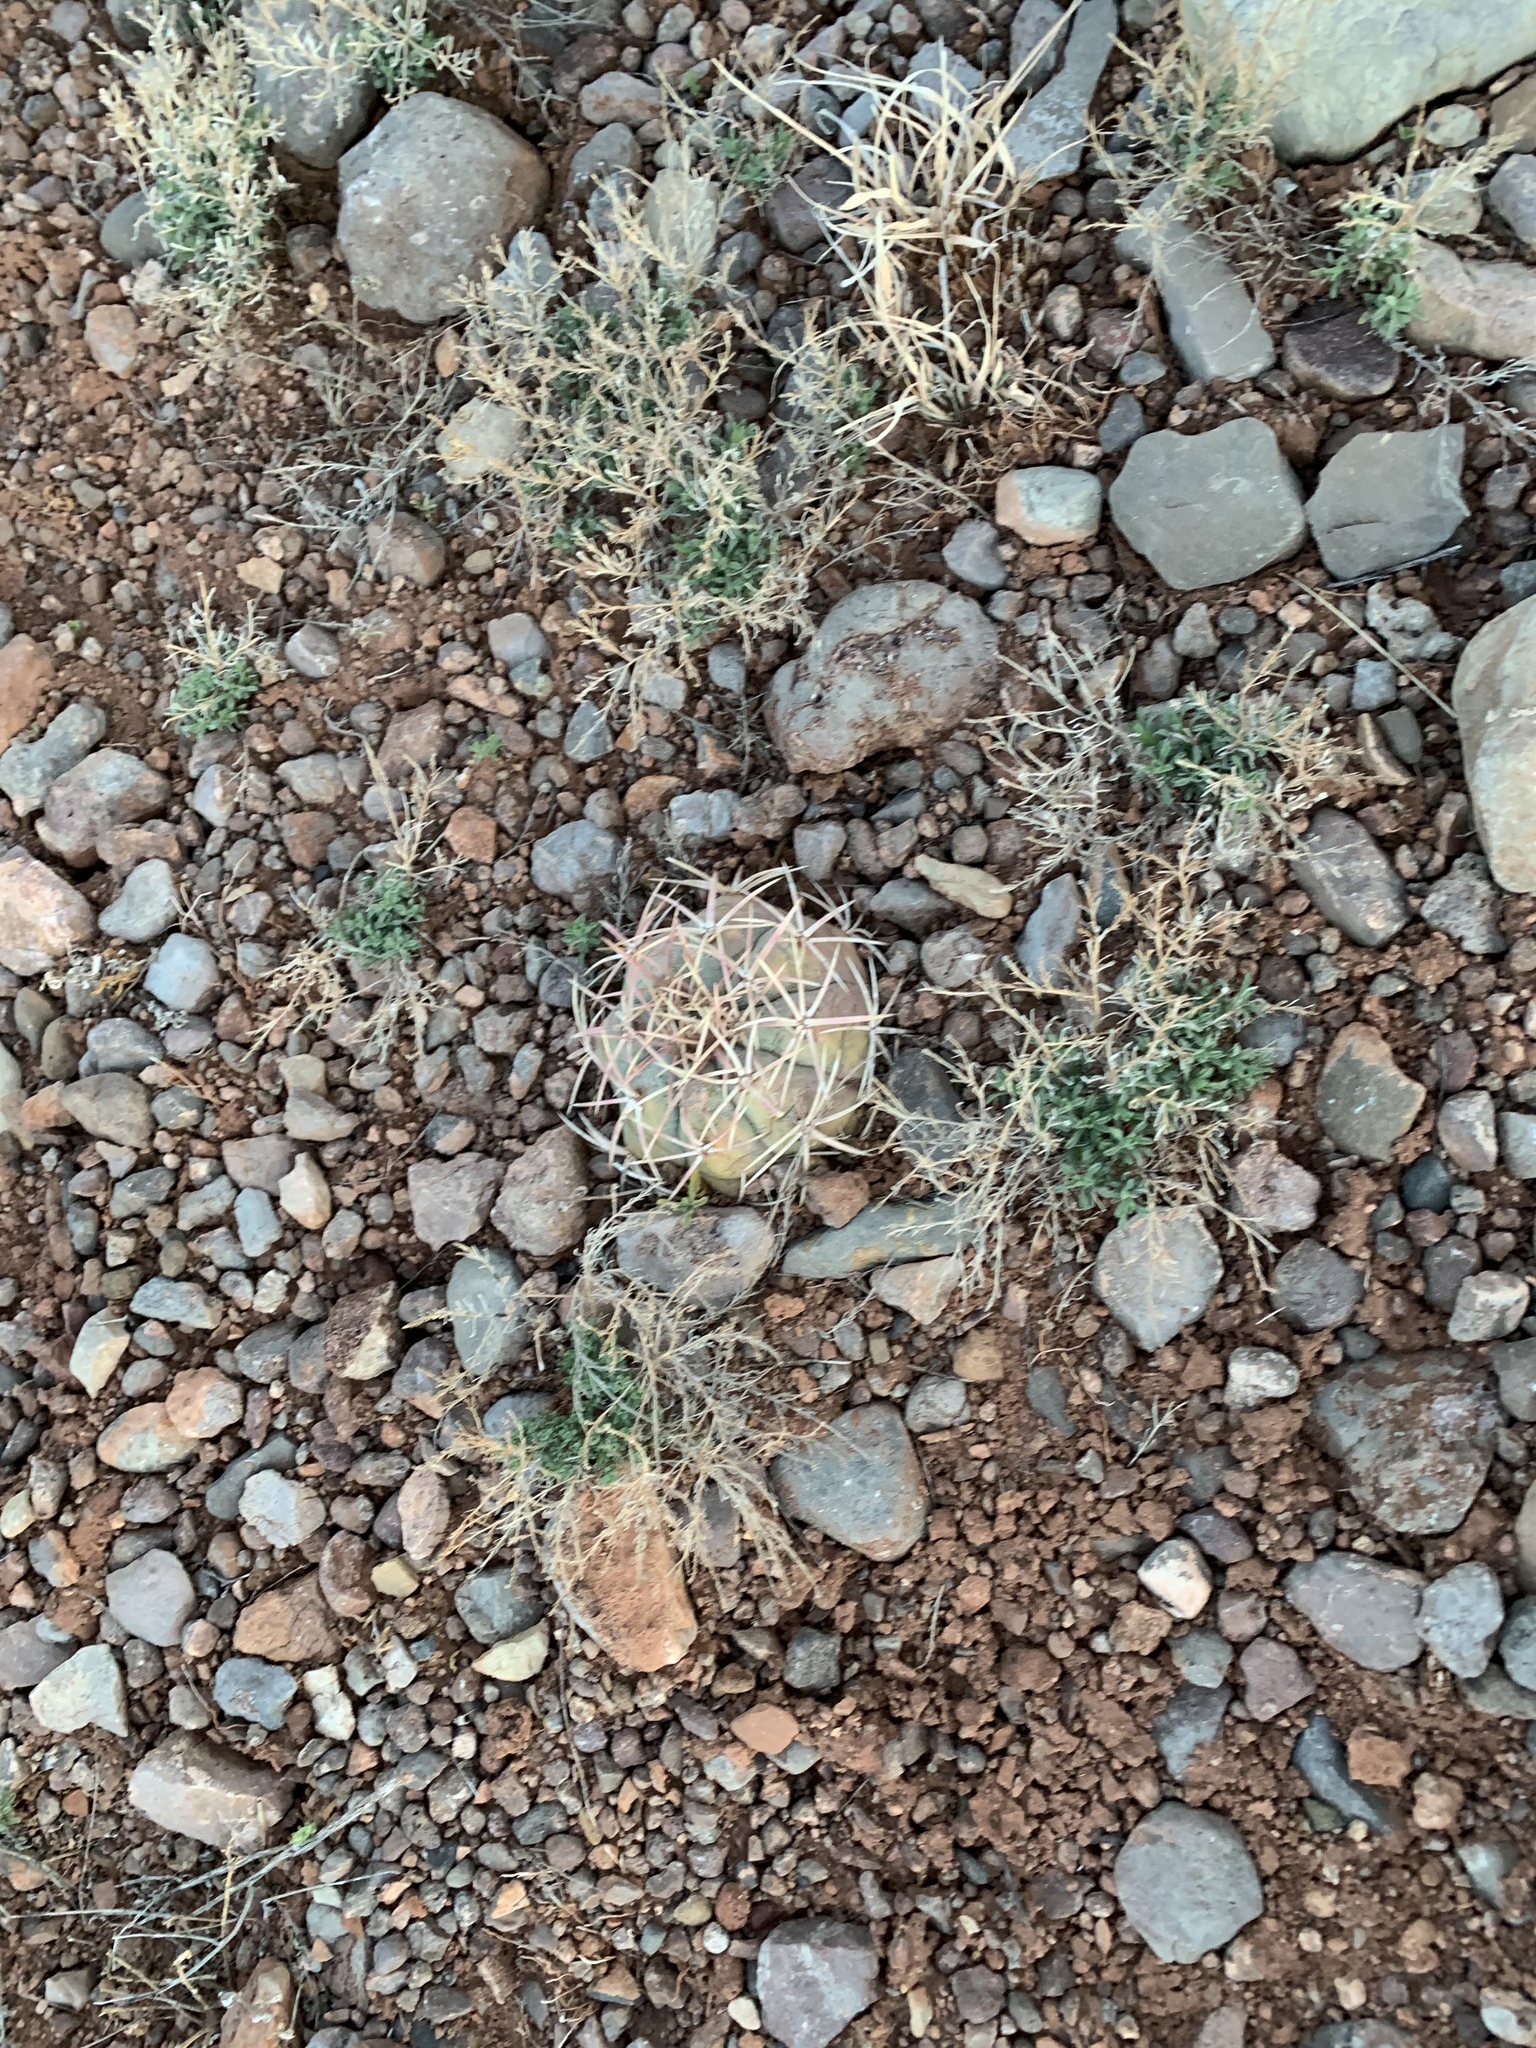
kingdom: Plantae
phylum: Tracheophyta
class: Magnoliopsida
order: Caryophyllales
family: Cactaceae
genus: Echinocactus
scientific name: Echinocactus horizonthalonius
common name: Devilshead
